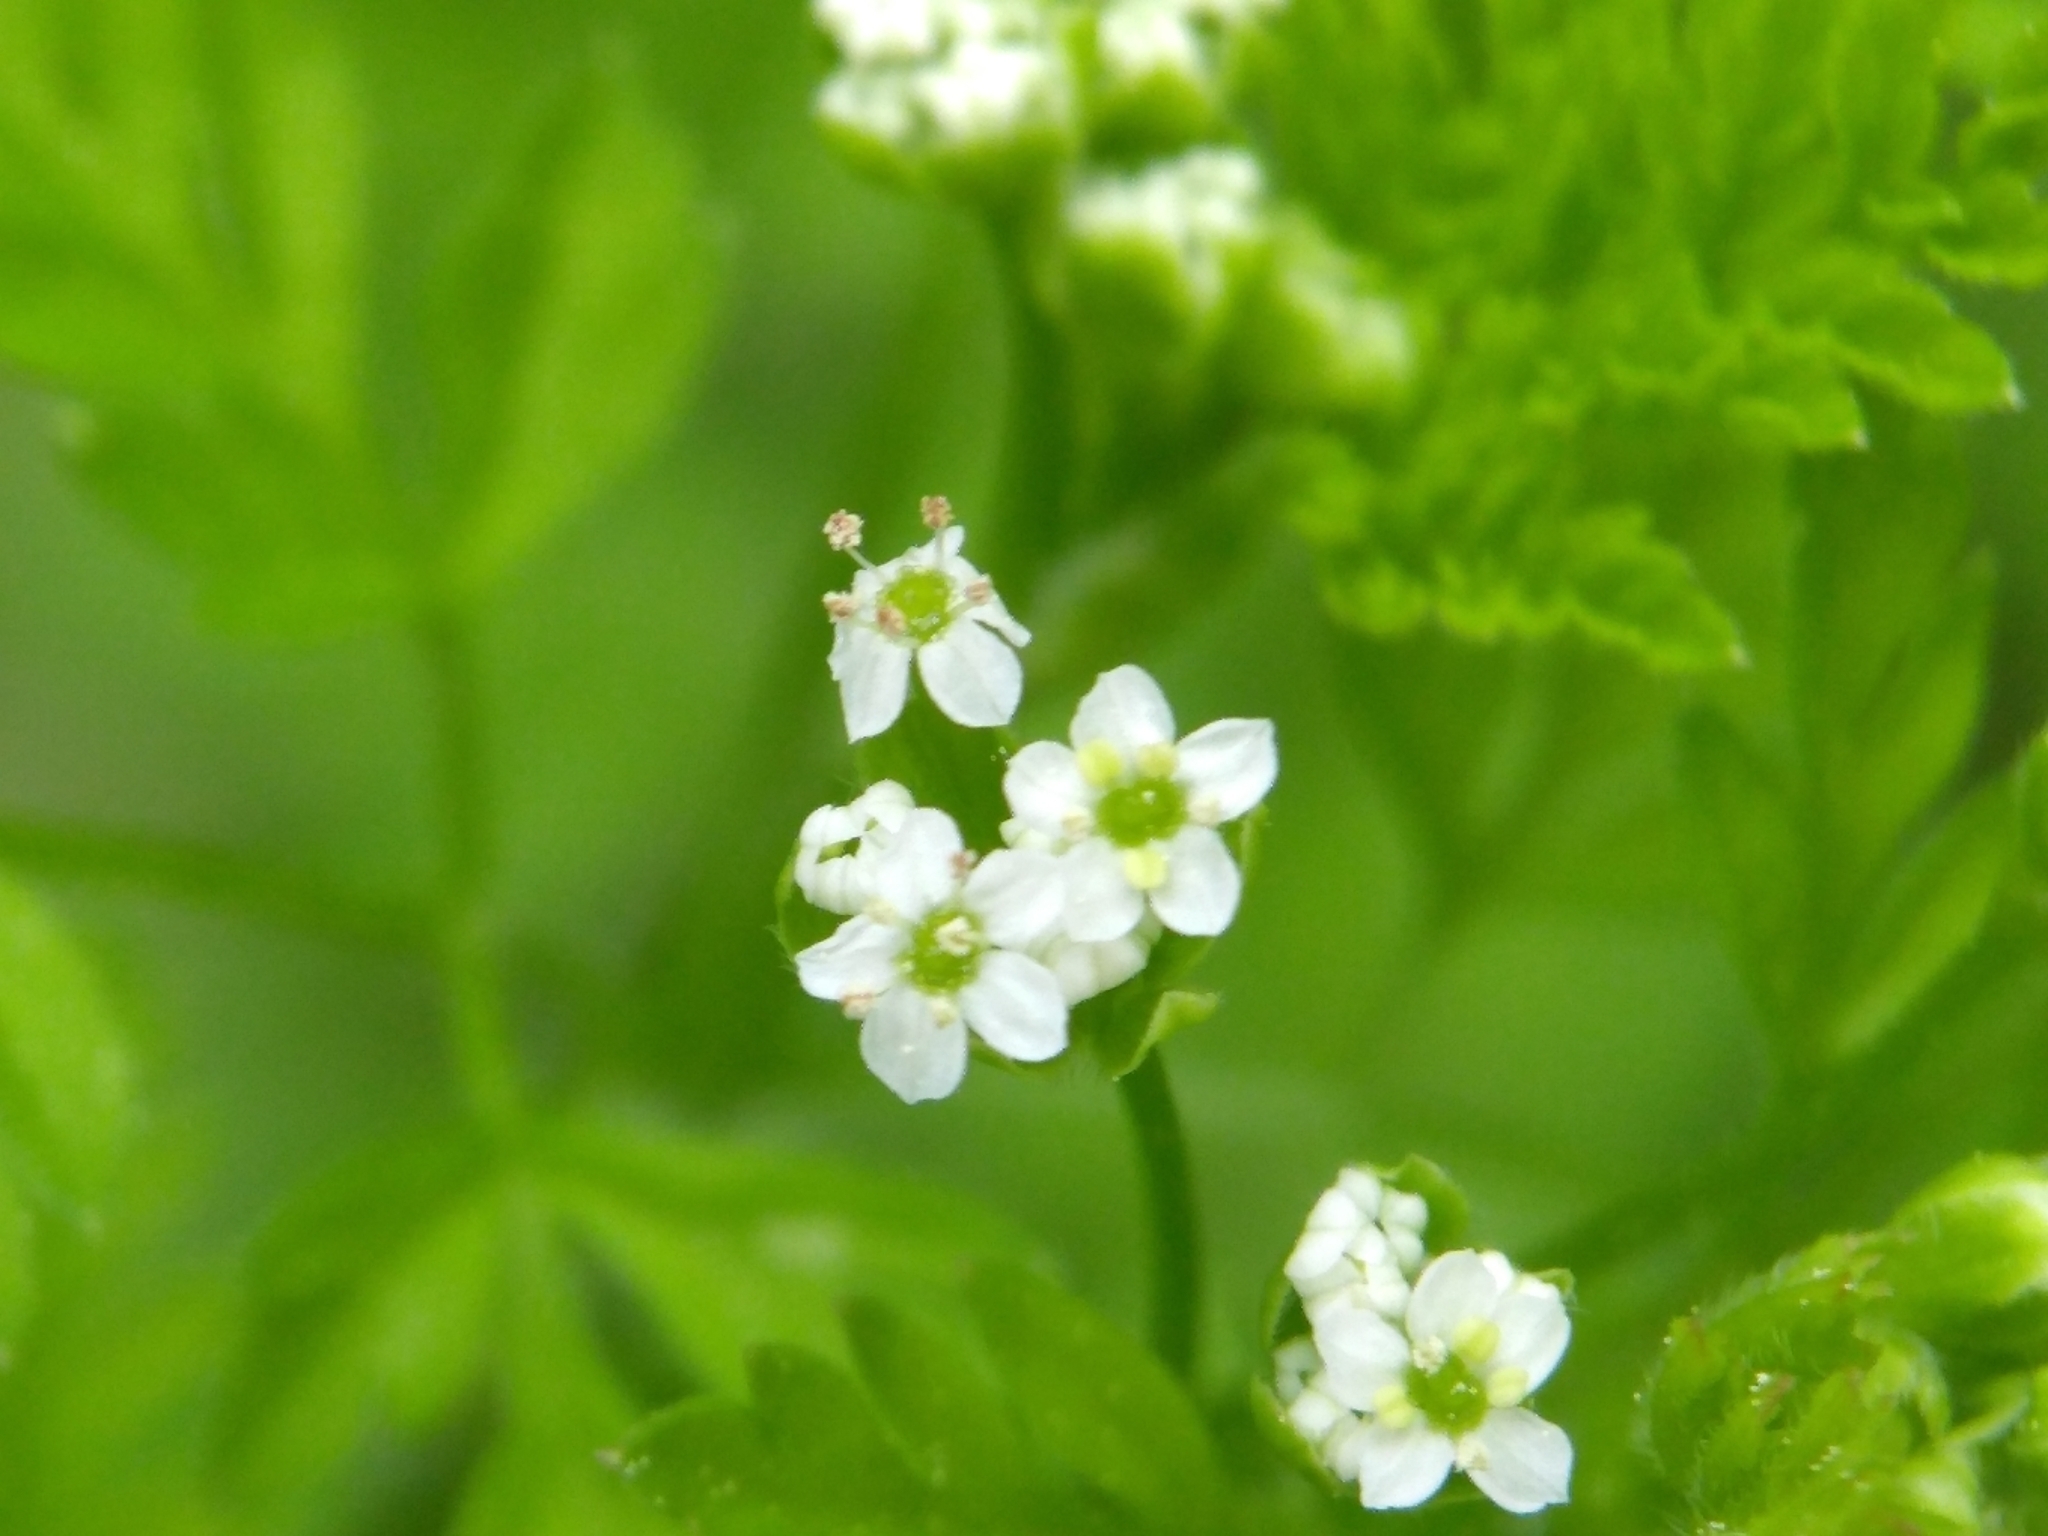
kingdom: Plantae
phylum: Tracheophyta
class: Magnoliopsida
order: Apiales
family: Apiaceae
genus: Chaerophyllum
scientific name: Chaerophyllum tainturieri
